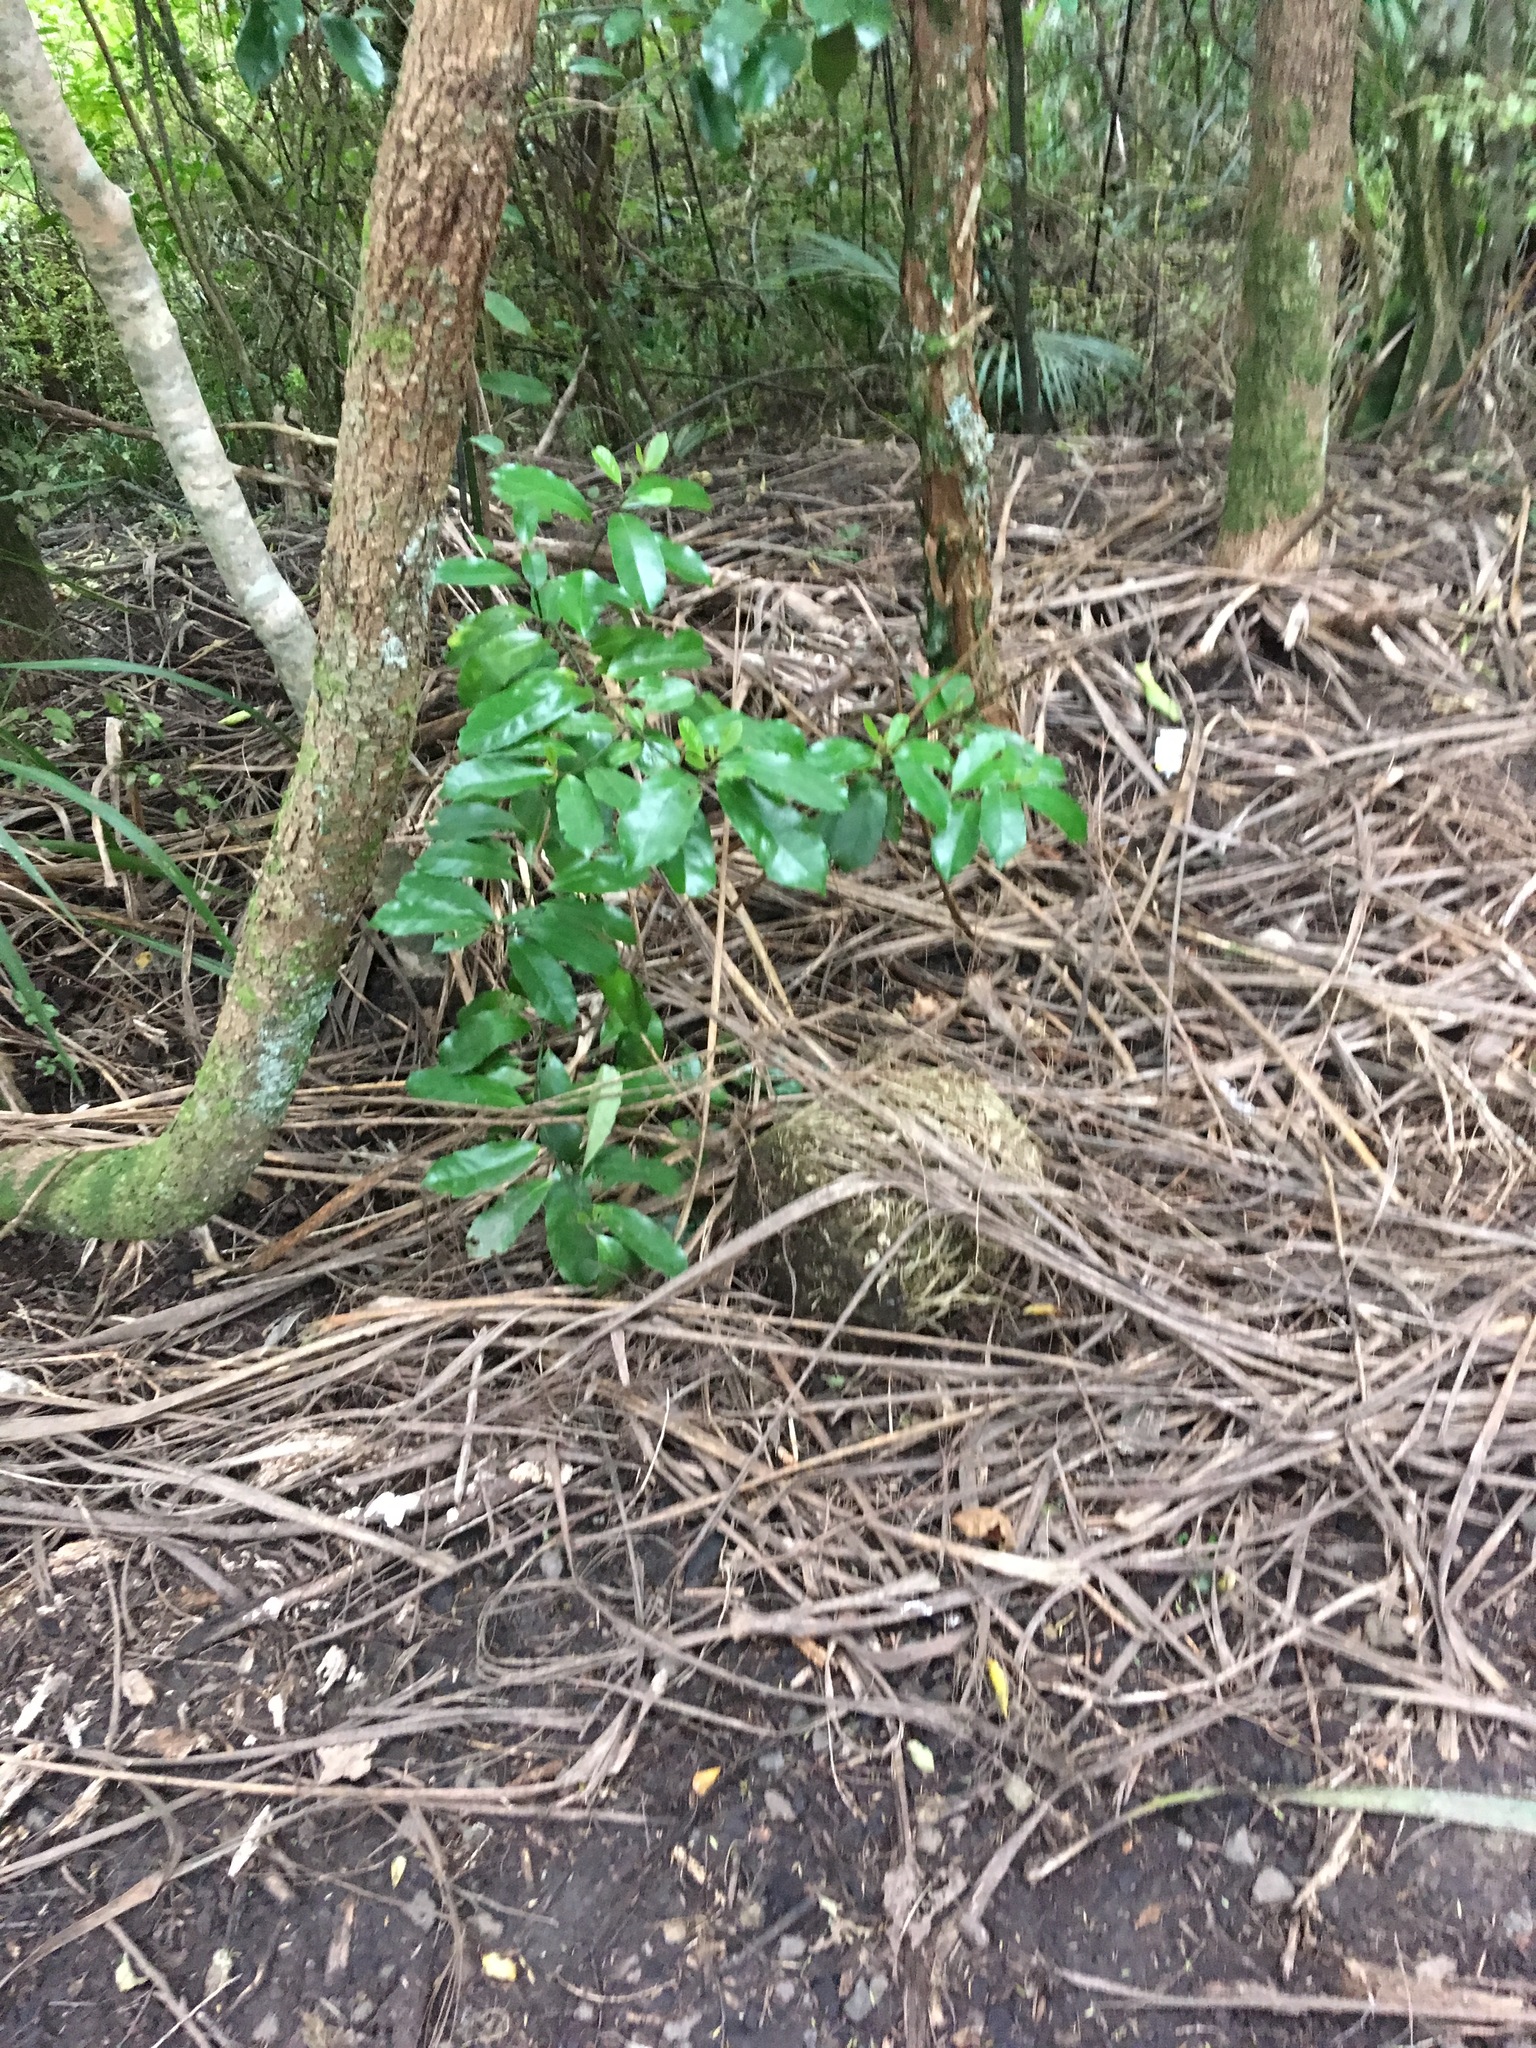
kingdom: Plantae
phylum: Tracheophyta
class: Magnoliopsida
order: Laurales
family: Monimiaceae
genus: Hedycarya
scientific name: Hedycarya arborea
